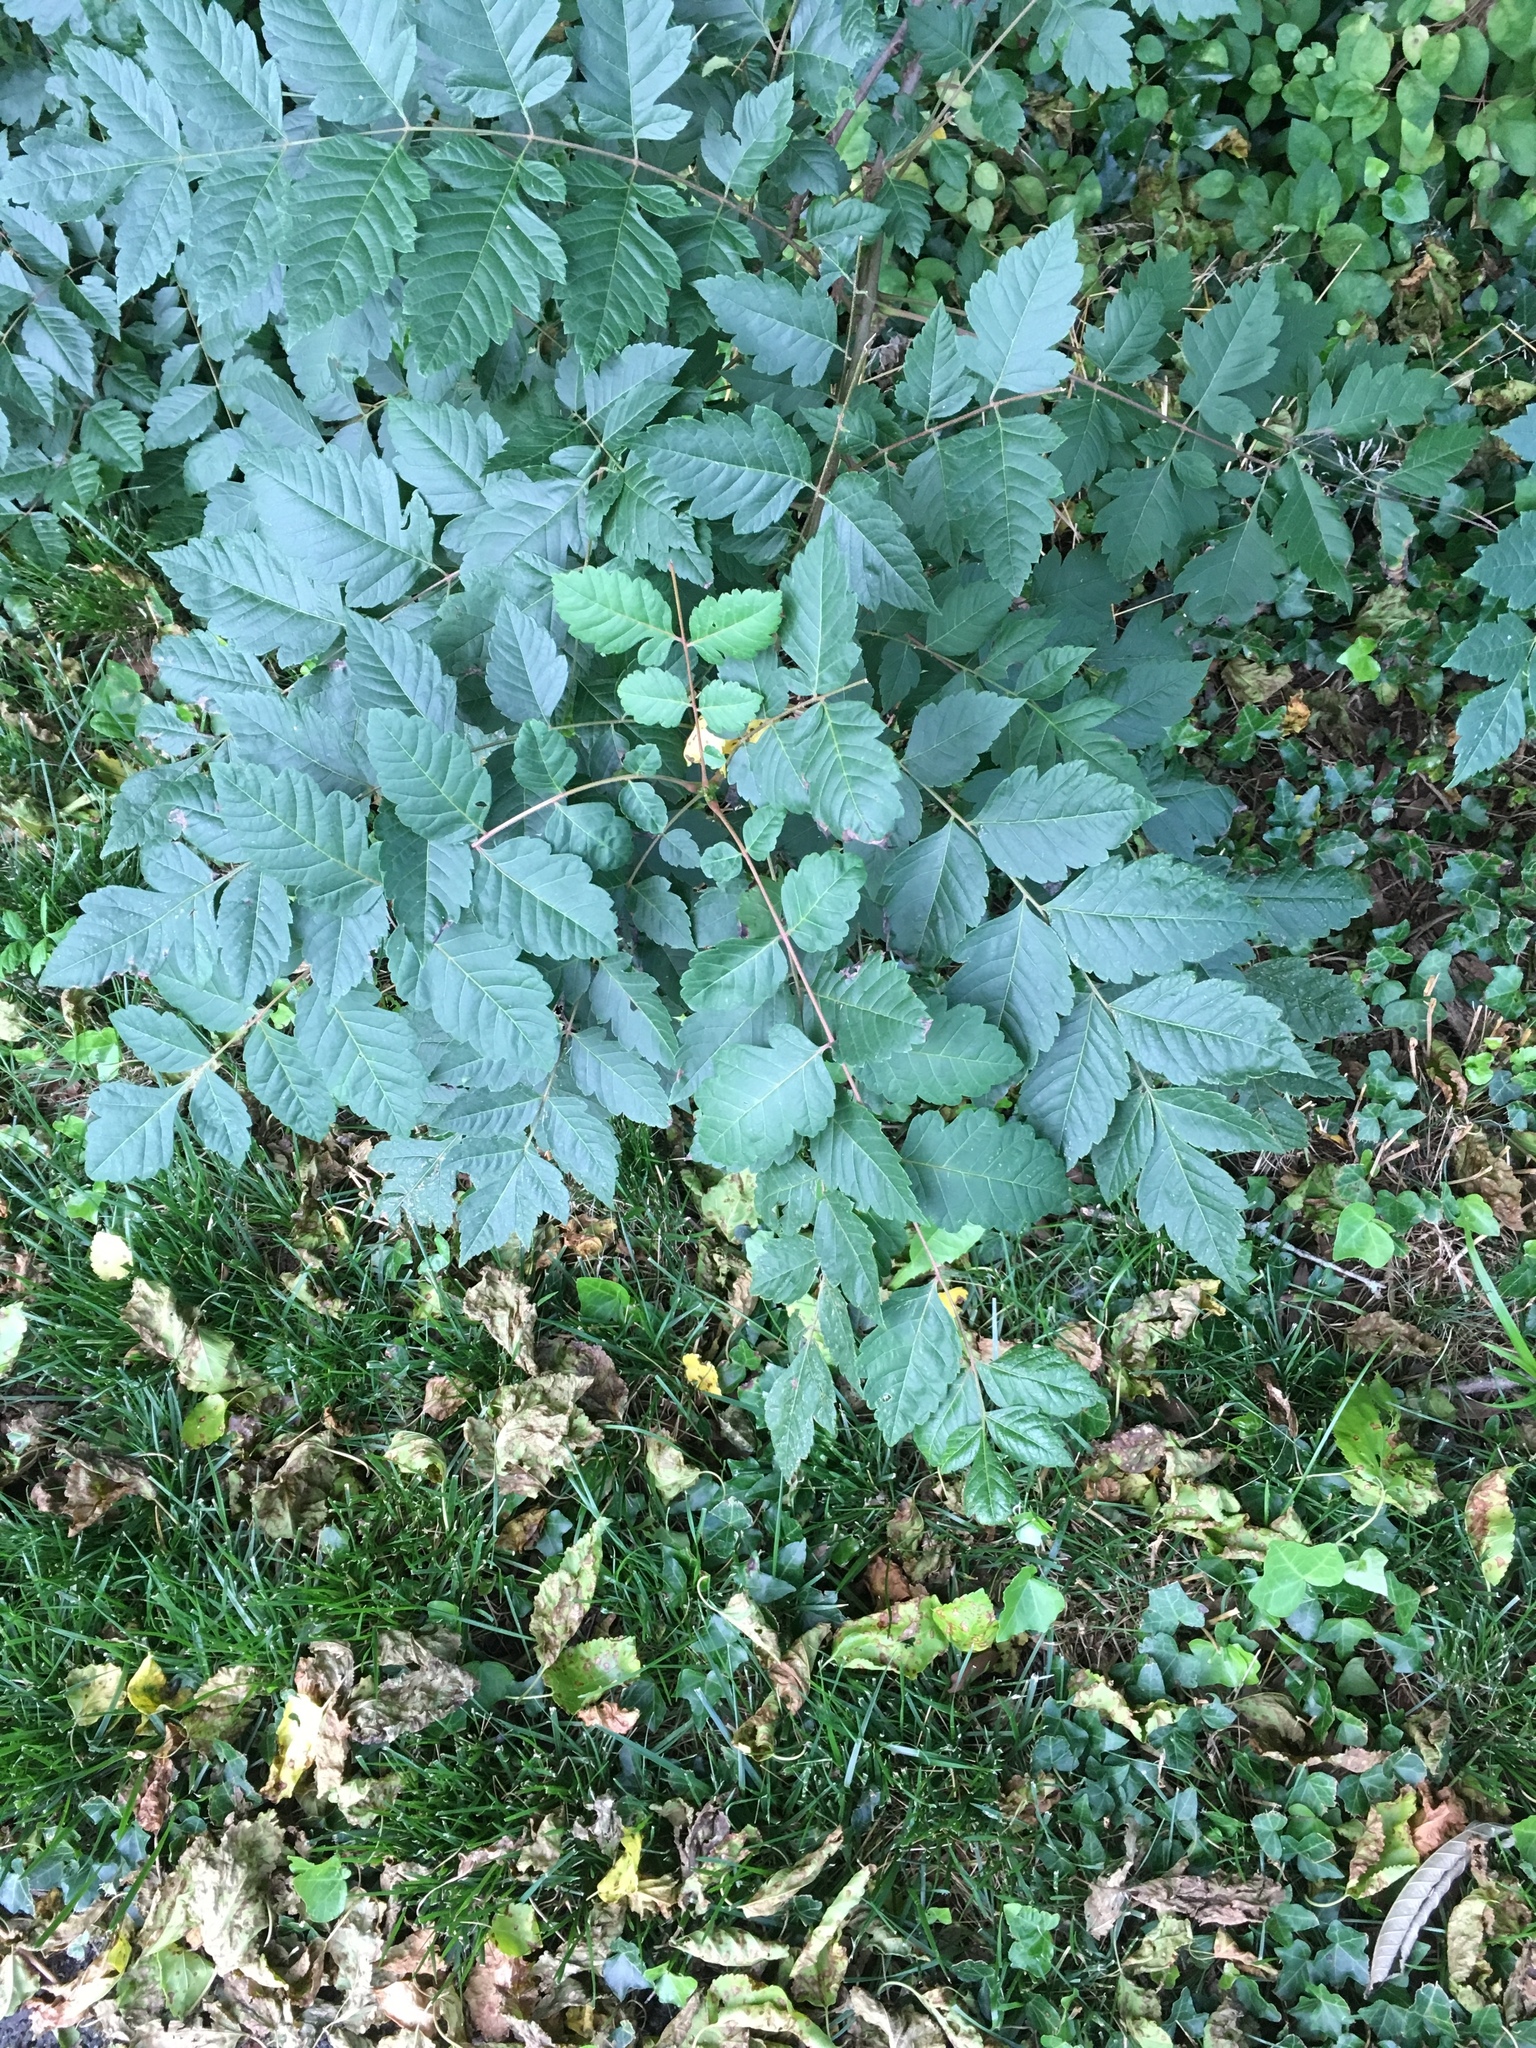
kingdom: Plantae
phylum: Tracheophyta
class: Magnoliopsida
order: Sapindales
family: Sapindaceae
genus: Koelreuteria
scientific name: Koelreuteria paniculata
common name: Pride-of-india
